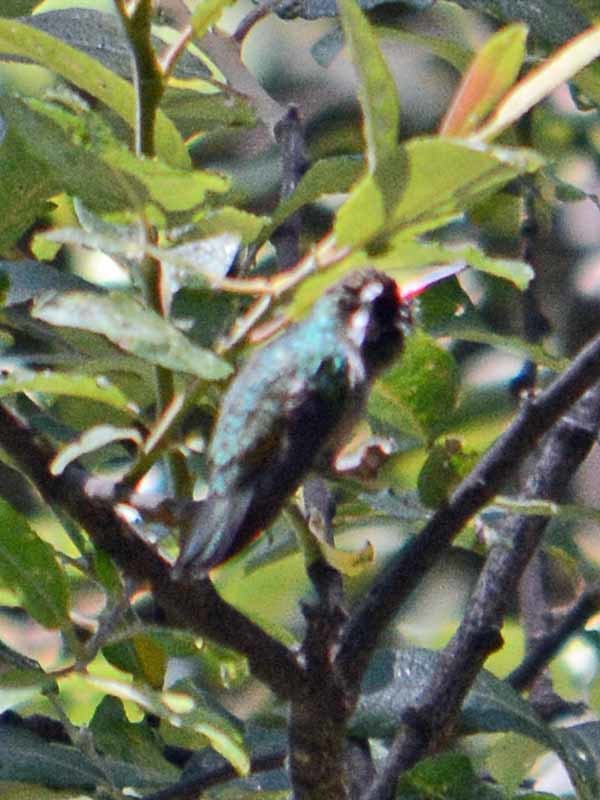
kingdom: Animalia
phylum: Chordata
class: Aves
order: Apodiformes
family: Trochilidae
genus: Basilinna
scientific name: Basilinna leucotis
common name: White-eared hummingbird
